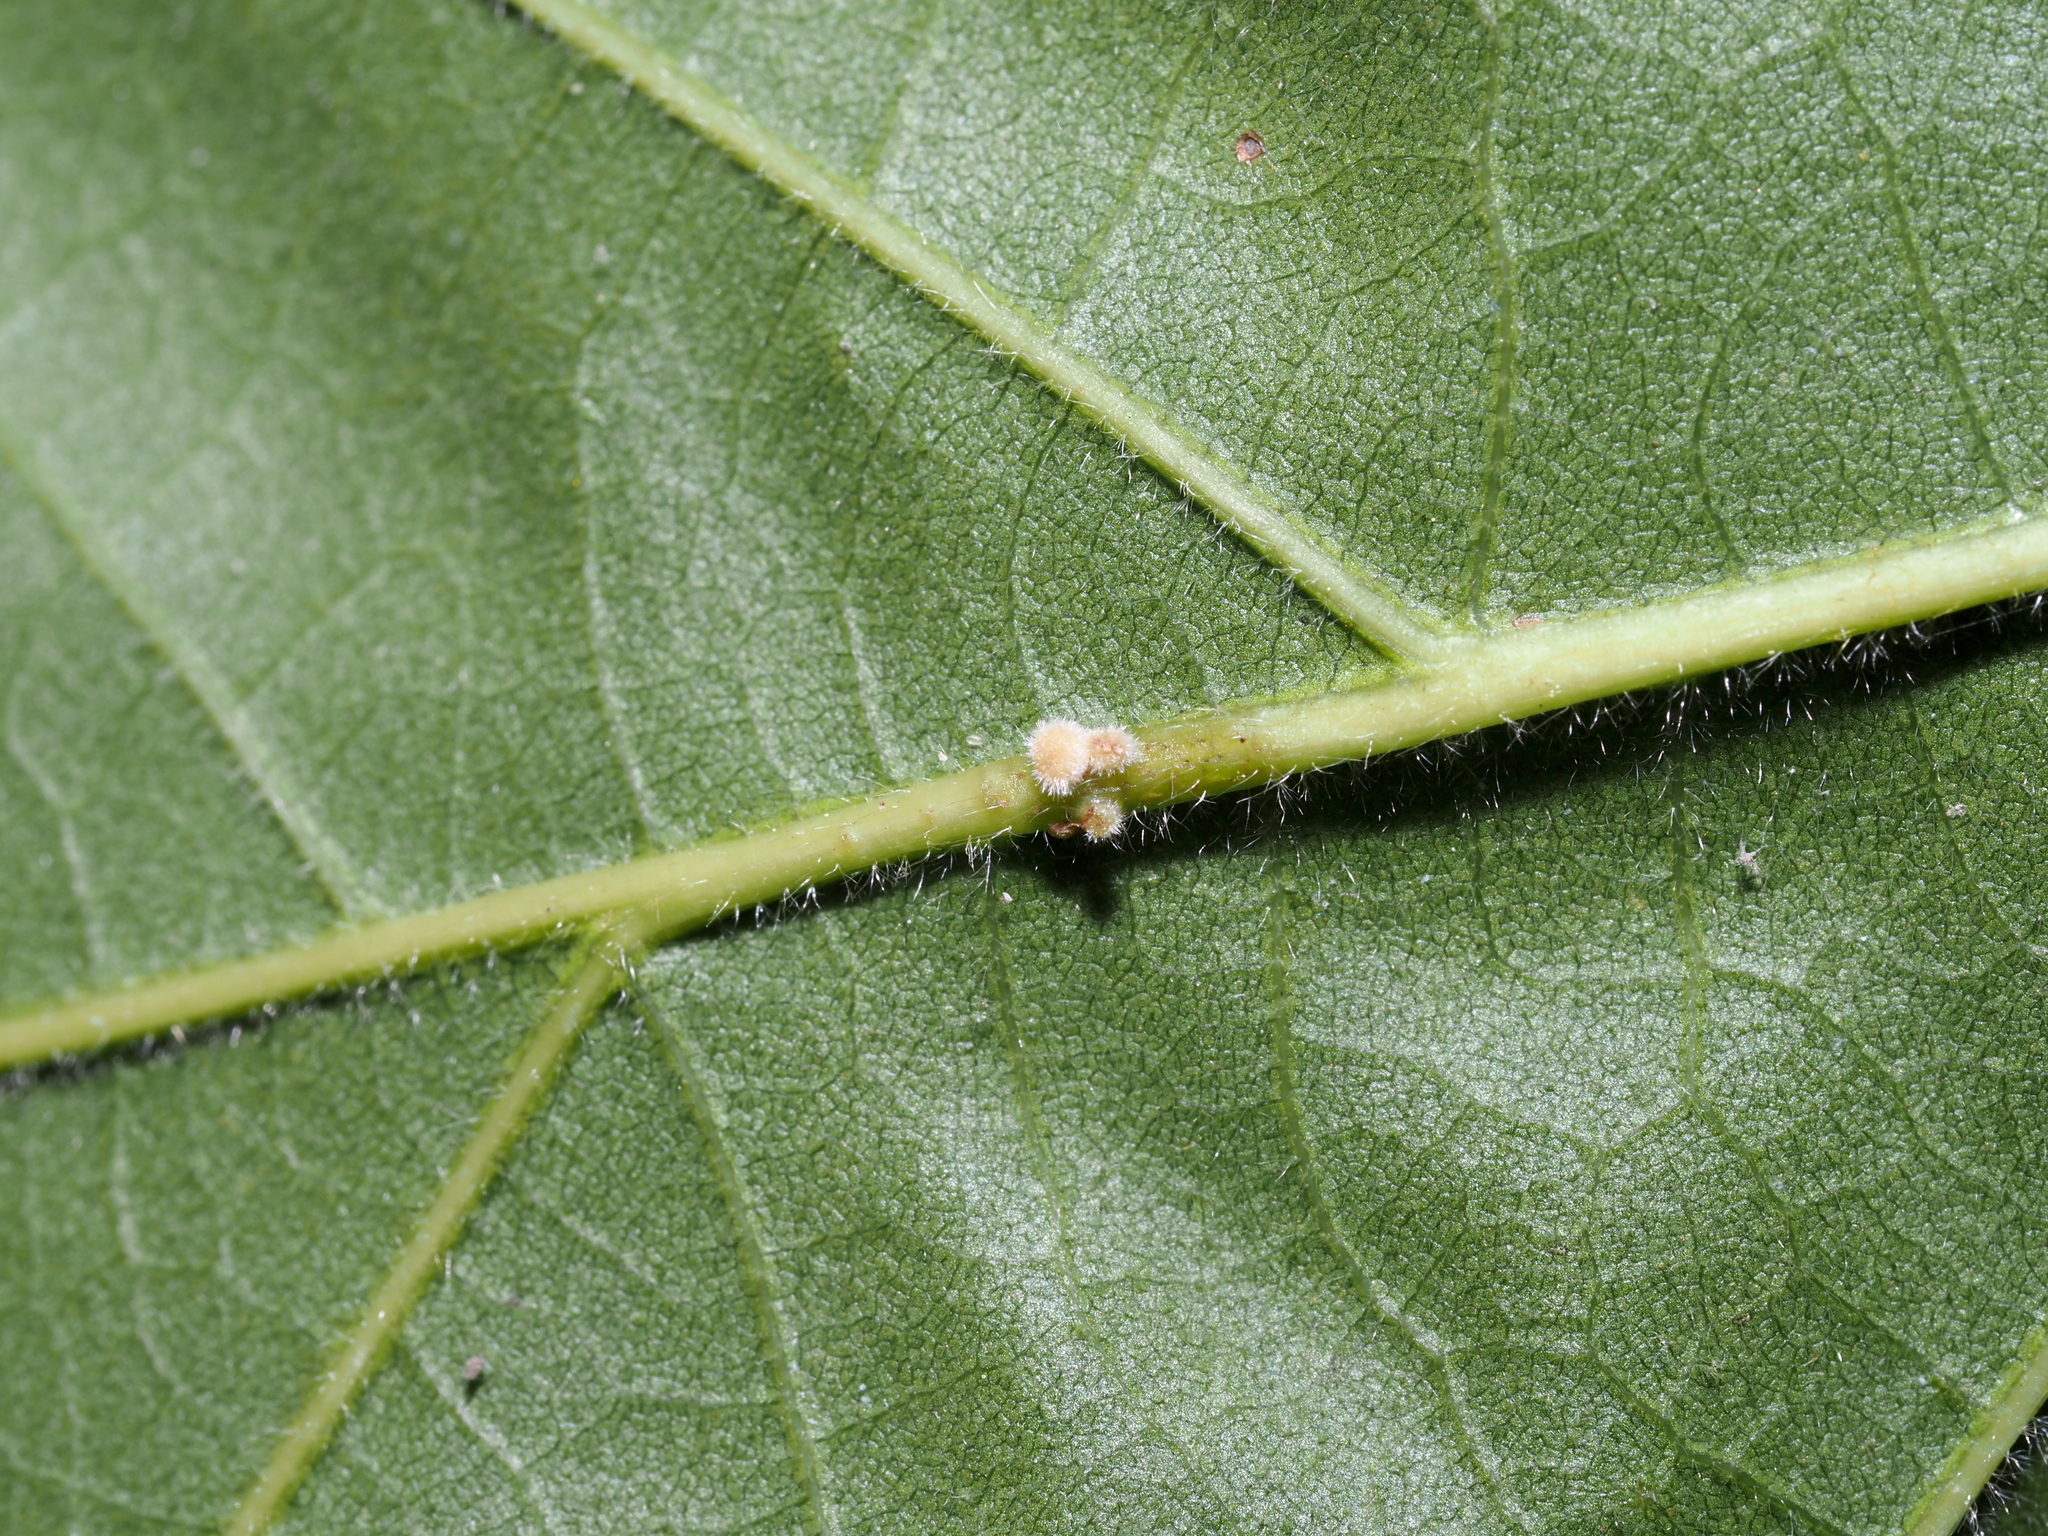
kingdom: Animalia
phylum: Arthropoda
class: Insecta
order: Hymenoptera
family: Cynipidae
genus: Andricus
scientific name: Andricus
